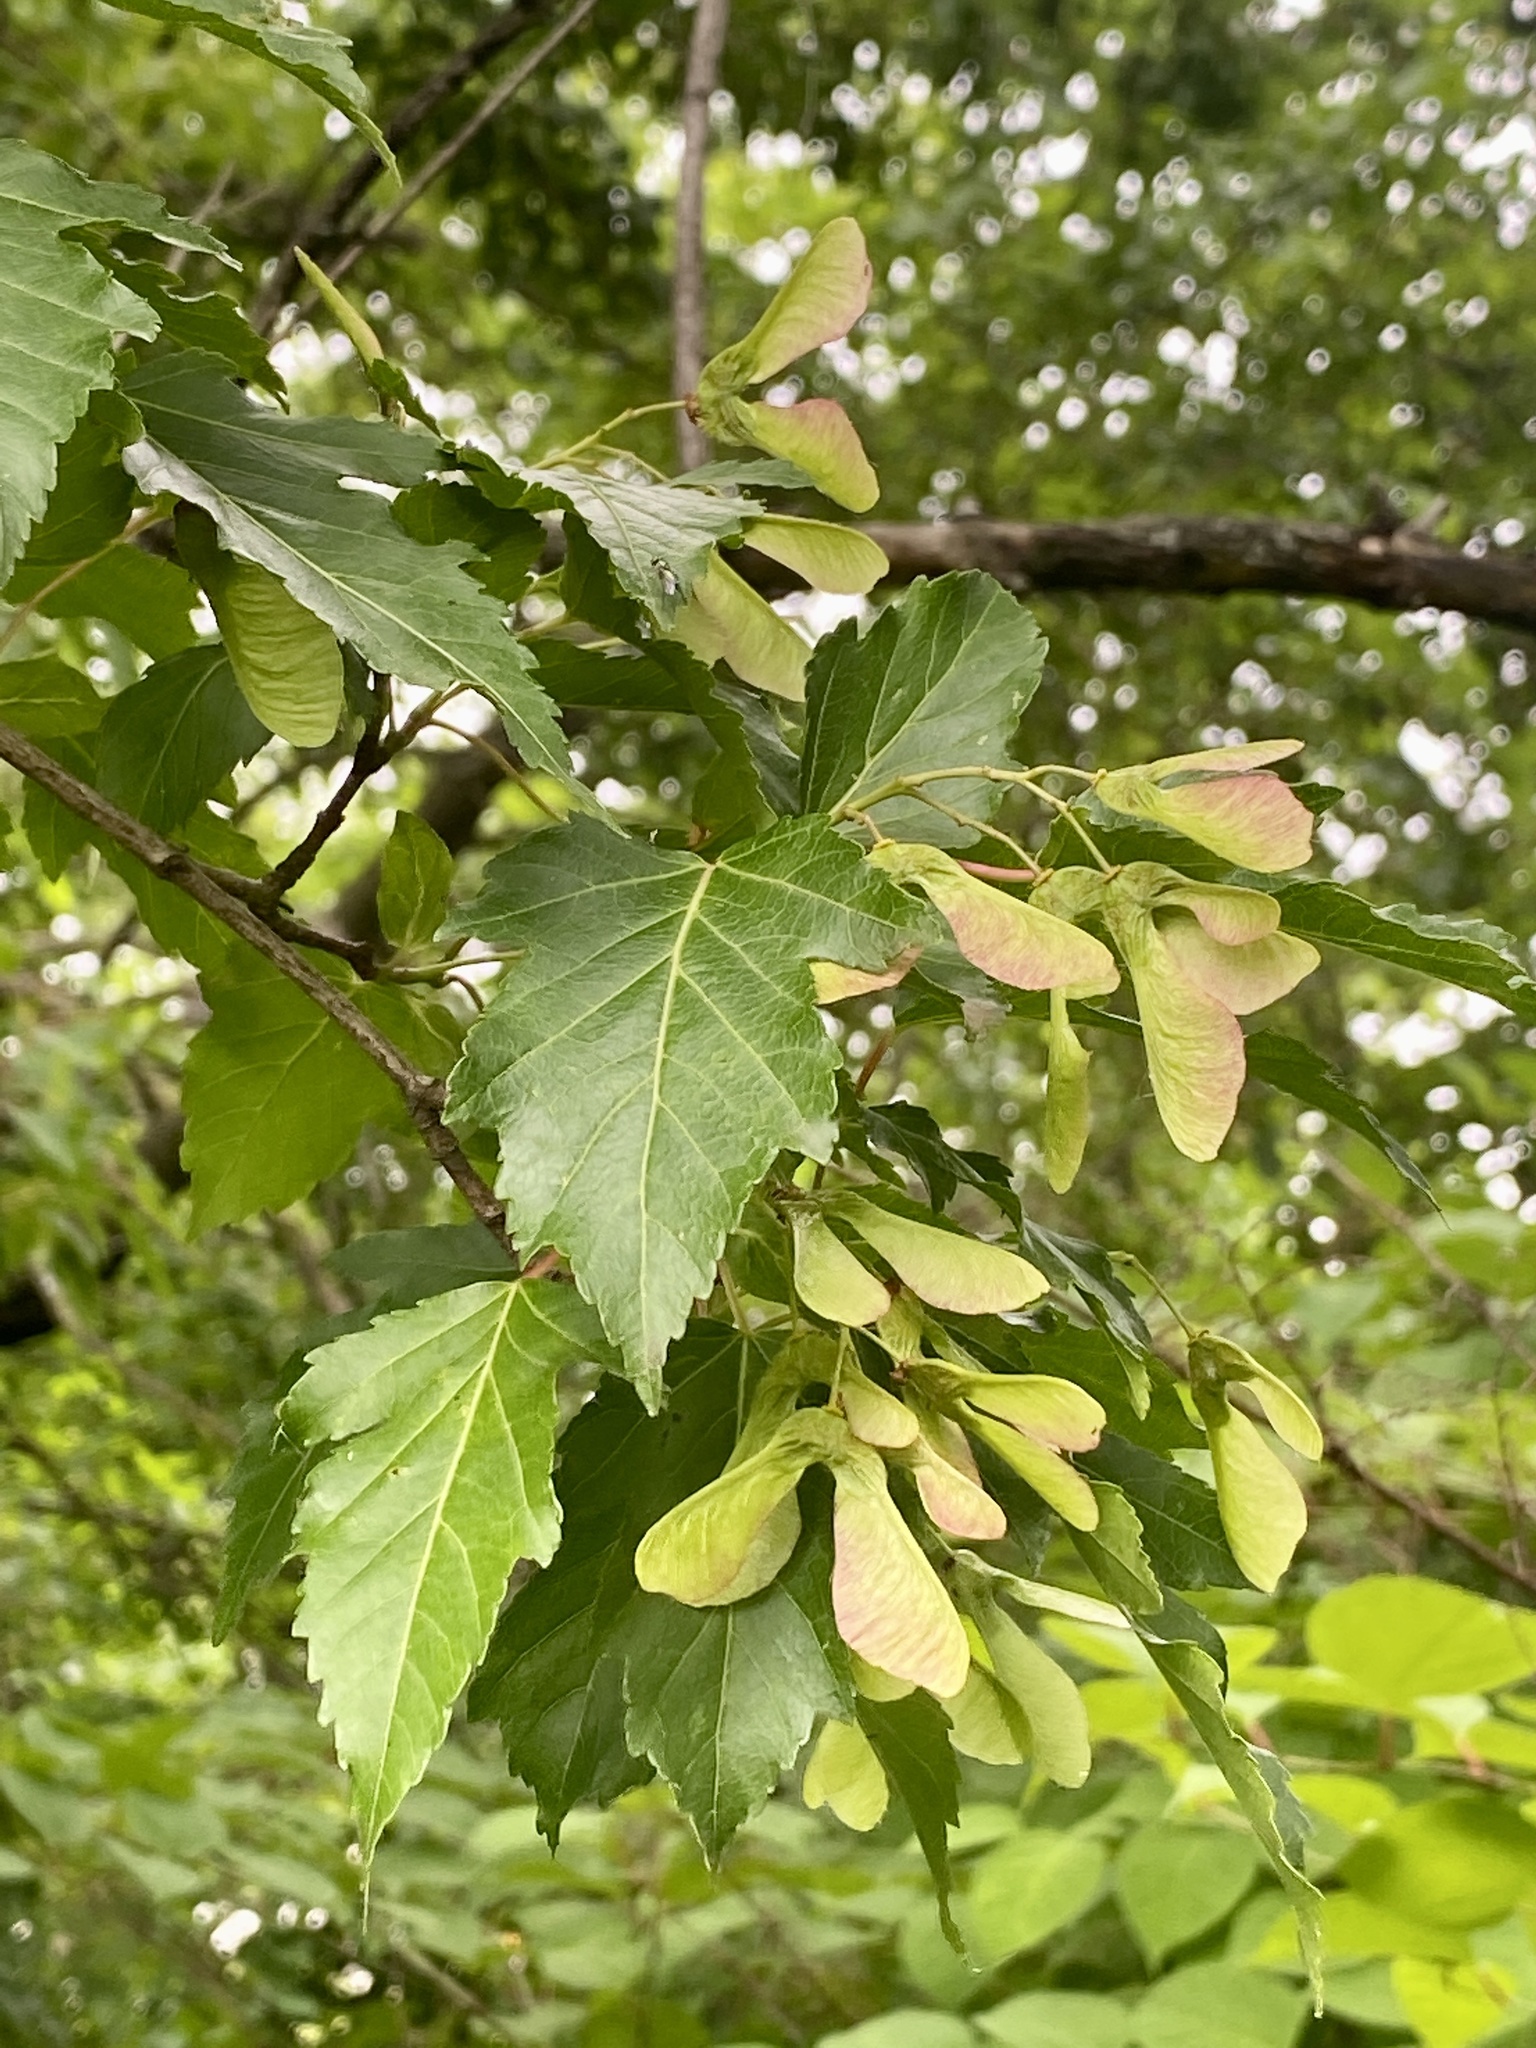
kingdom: Plantae
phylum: Tracheophyta
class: Magnoliopsida
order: Sapindales
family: Sapindaceae
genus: Acer
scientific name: Acer tataricum
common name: Tartar maple
